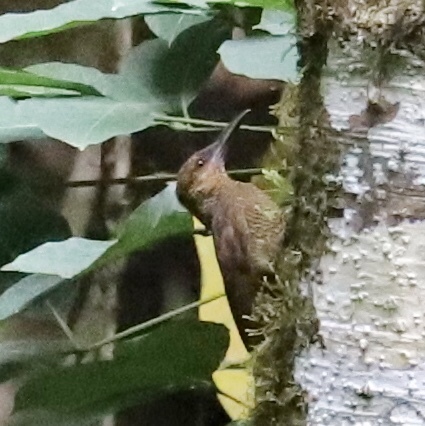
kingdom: Animalia
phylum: Chordata
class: Aves
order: Passeriformes
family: Furnariidae
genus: Dendrocolaptes
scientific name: Dendrocolaptes sanctithomae
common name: Northern barred-woodcreeper
